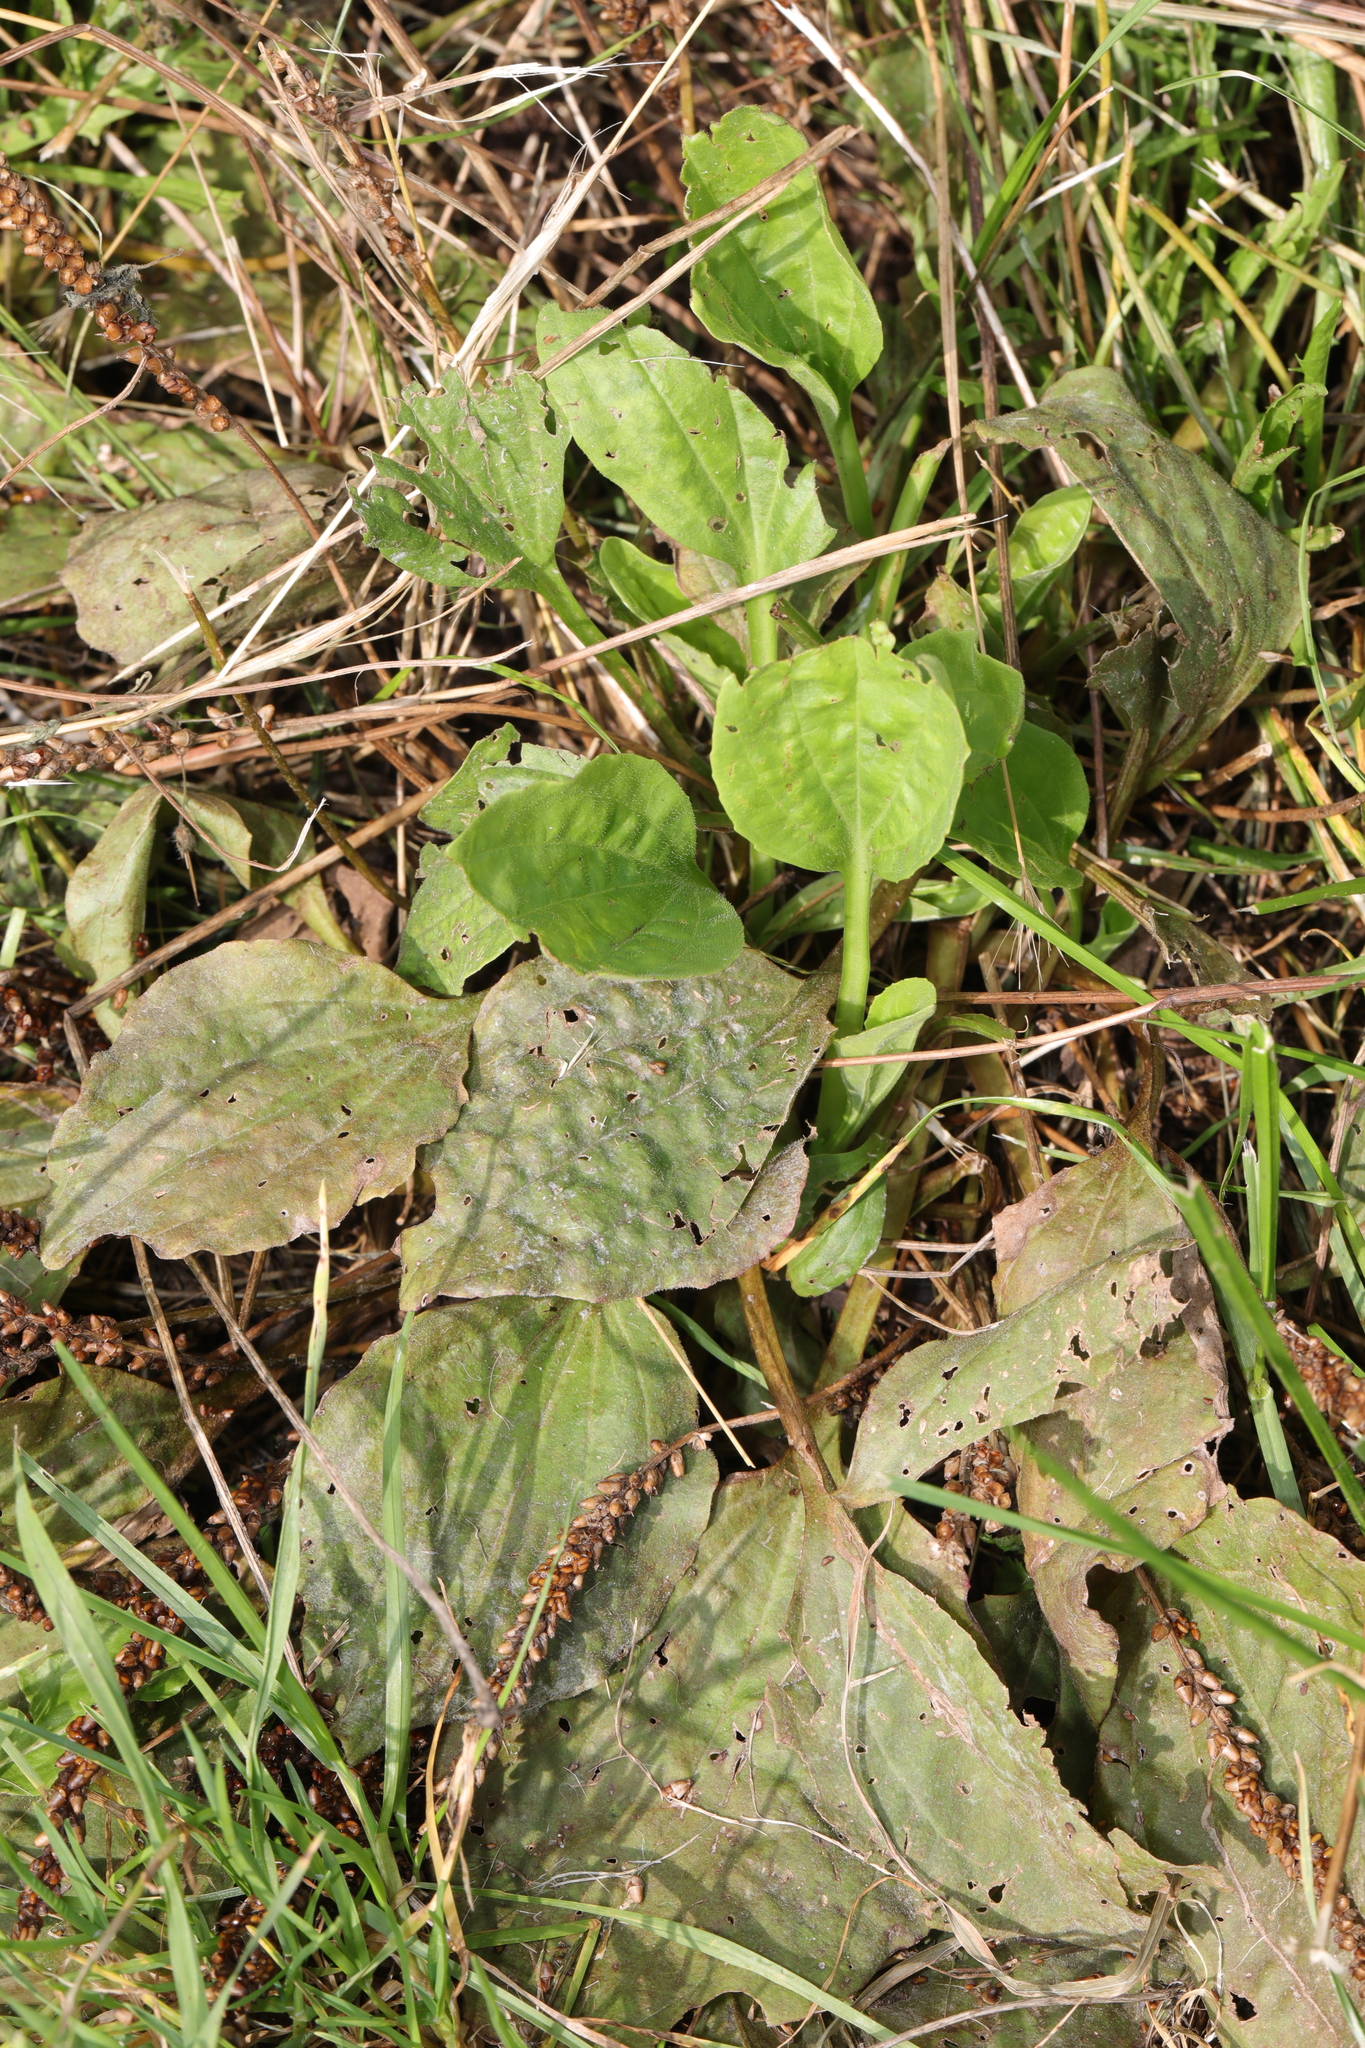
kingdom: Plantae
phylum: Tracheophyta
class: Magnoliopsida
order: Lamiales
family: Plantaginaceae
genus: Plantago
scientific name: Plantago major
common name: Common plantain
